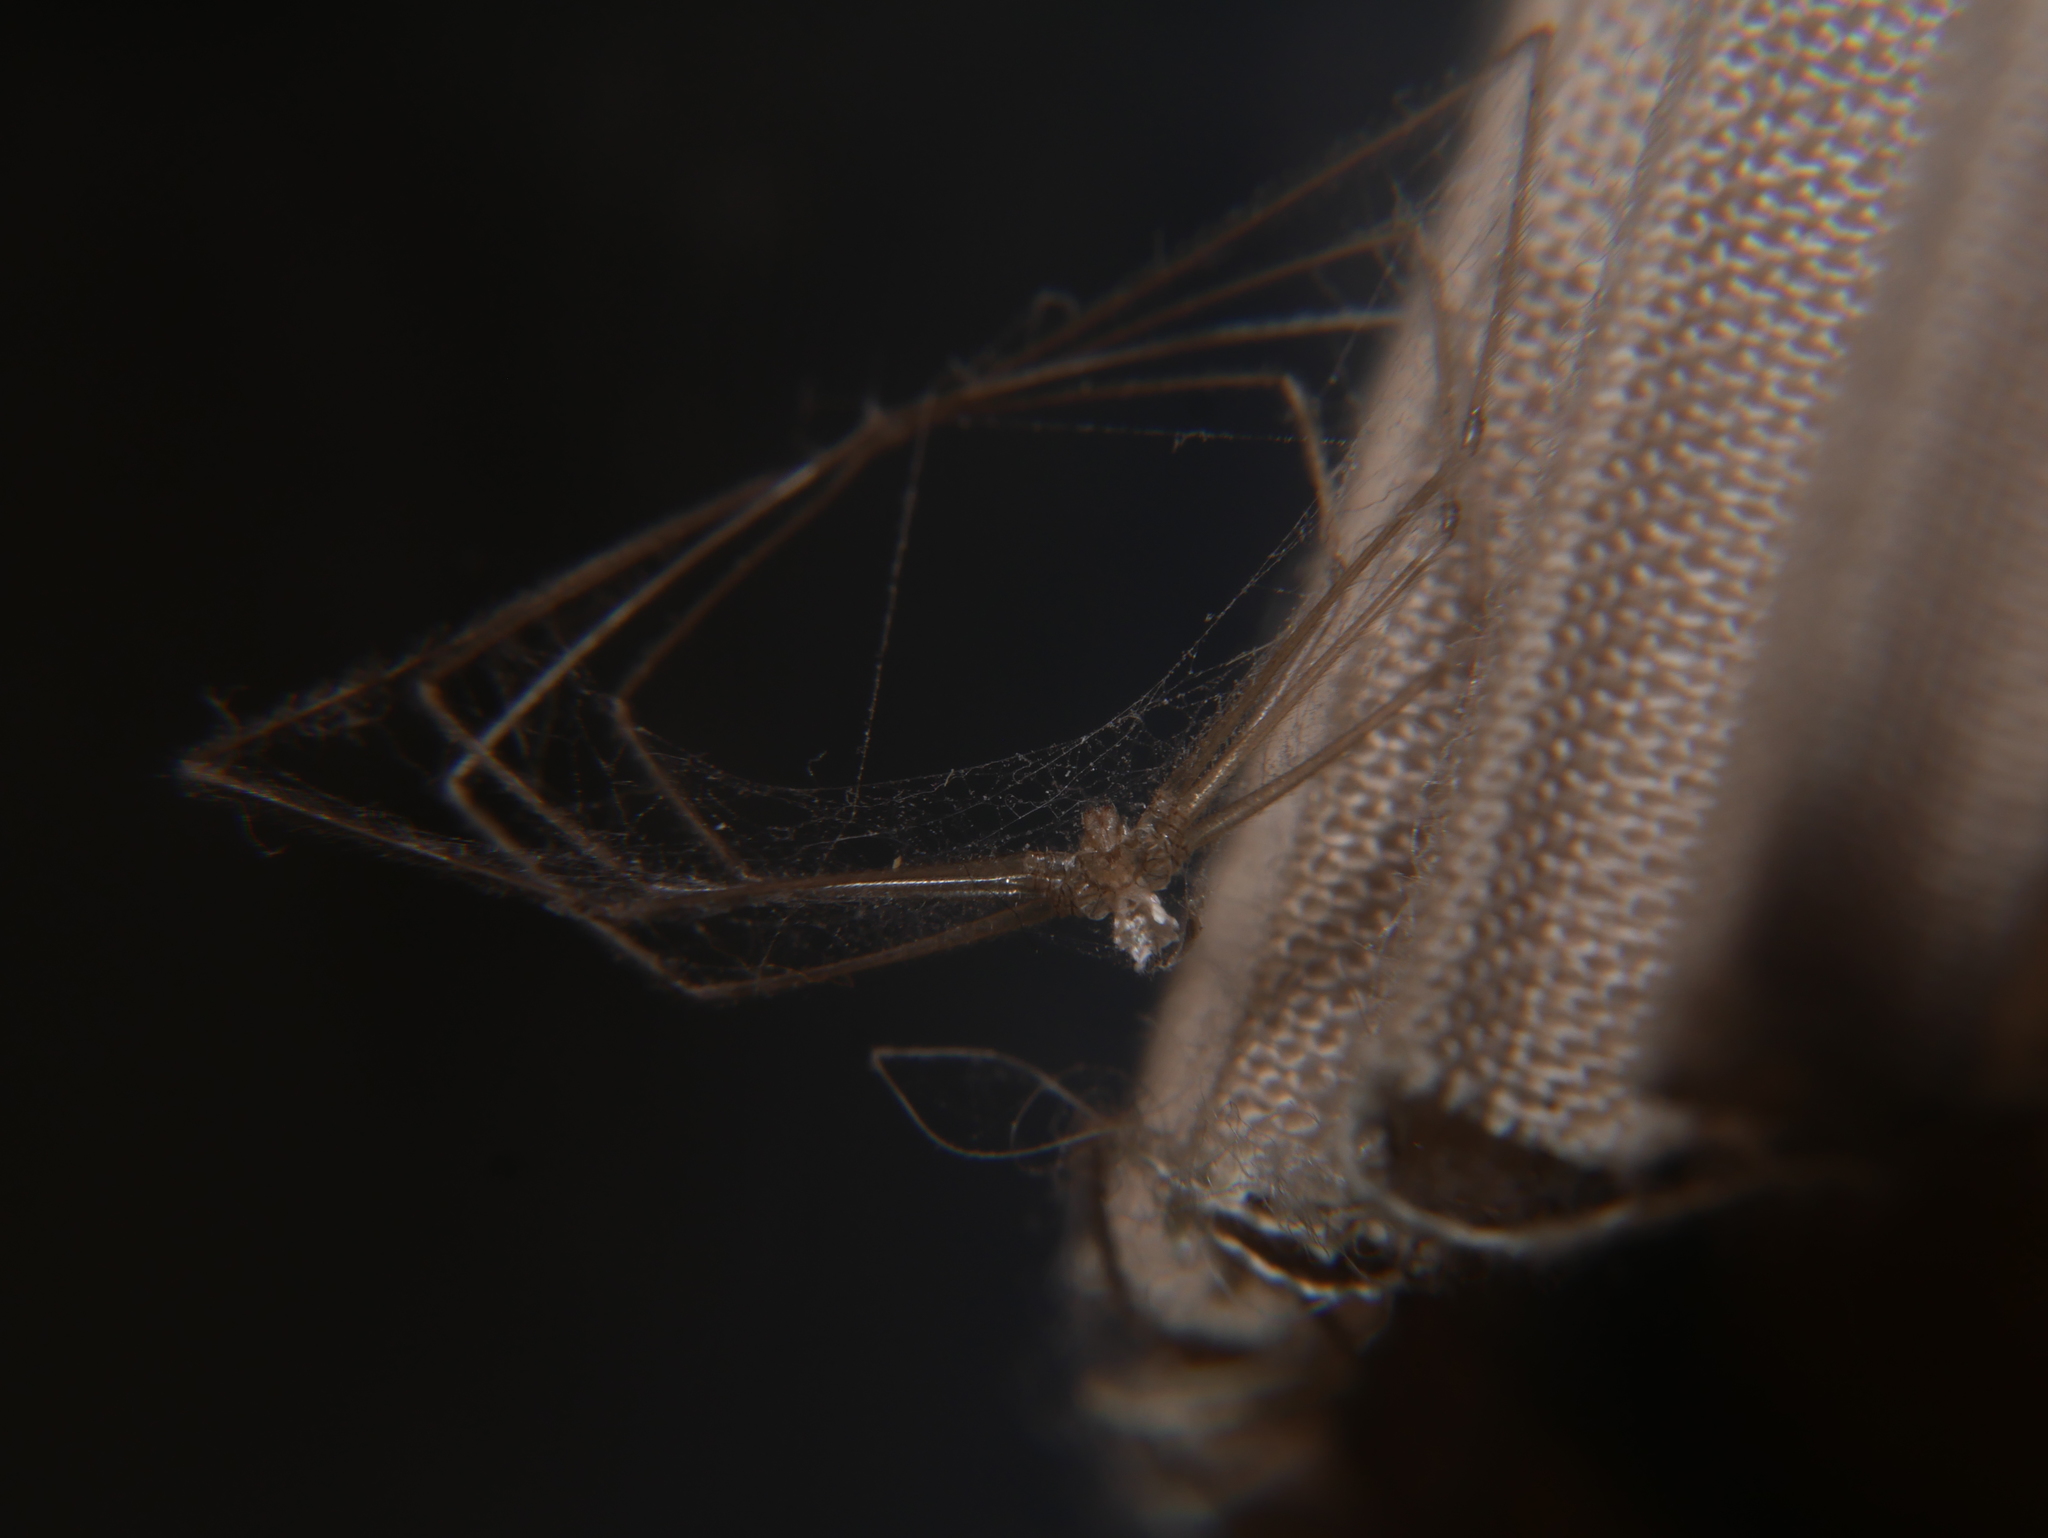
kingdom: Animalia
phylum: Arthropoda
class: Arachnida
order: Araneae
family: Pholcidae
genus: Pholcus
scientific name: Pholcus phalangioides
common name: Longbodied cellar spider
